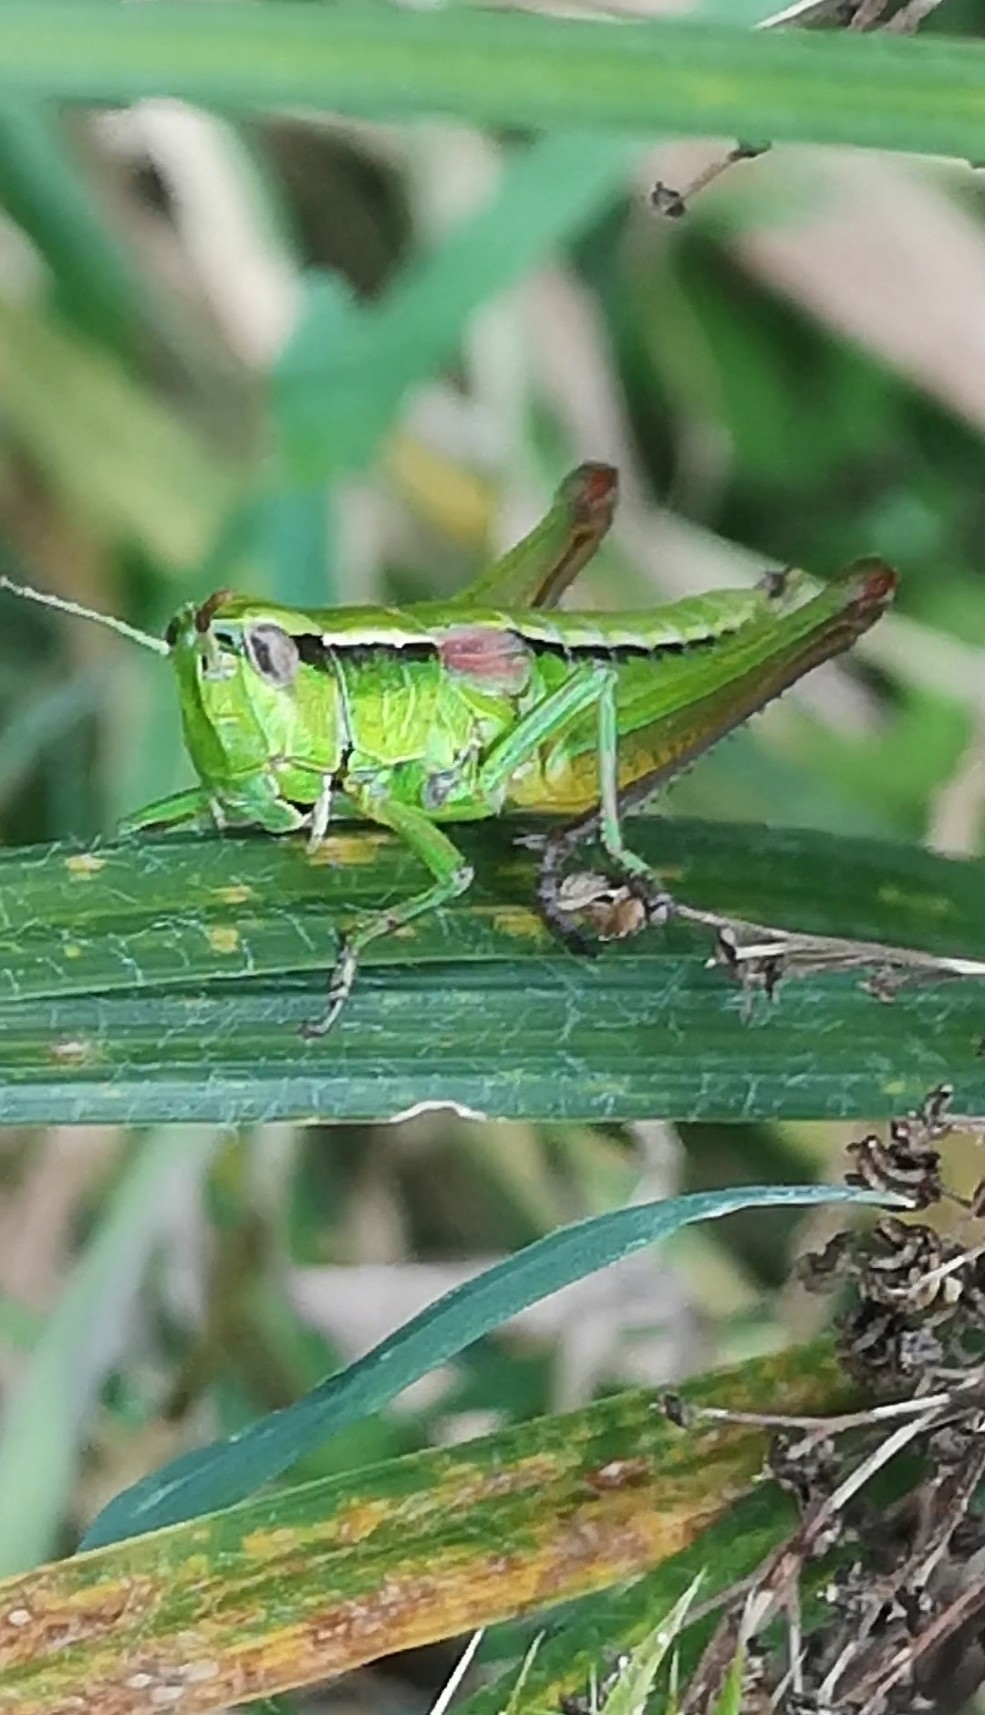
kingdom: Animalia
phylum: Arthropoda
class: Insecta
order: Orthoptera
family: Acrididae
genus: Euthystira
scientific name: Euthystira brachyptera
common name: Small gold grasshopper
